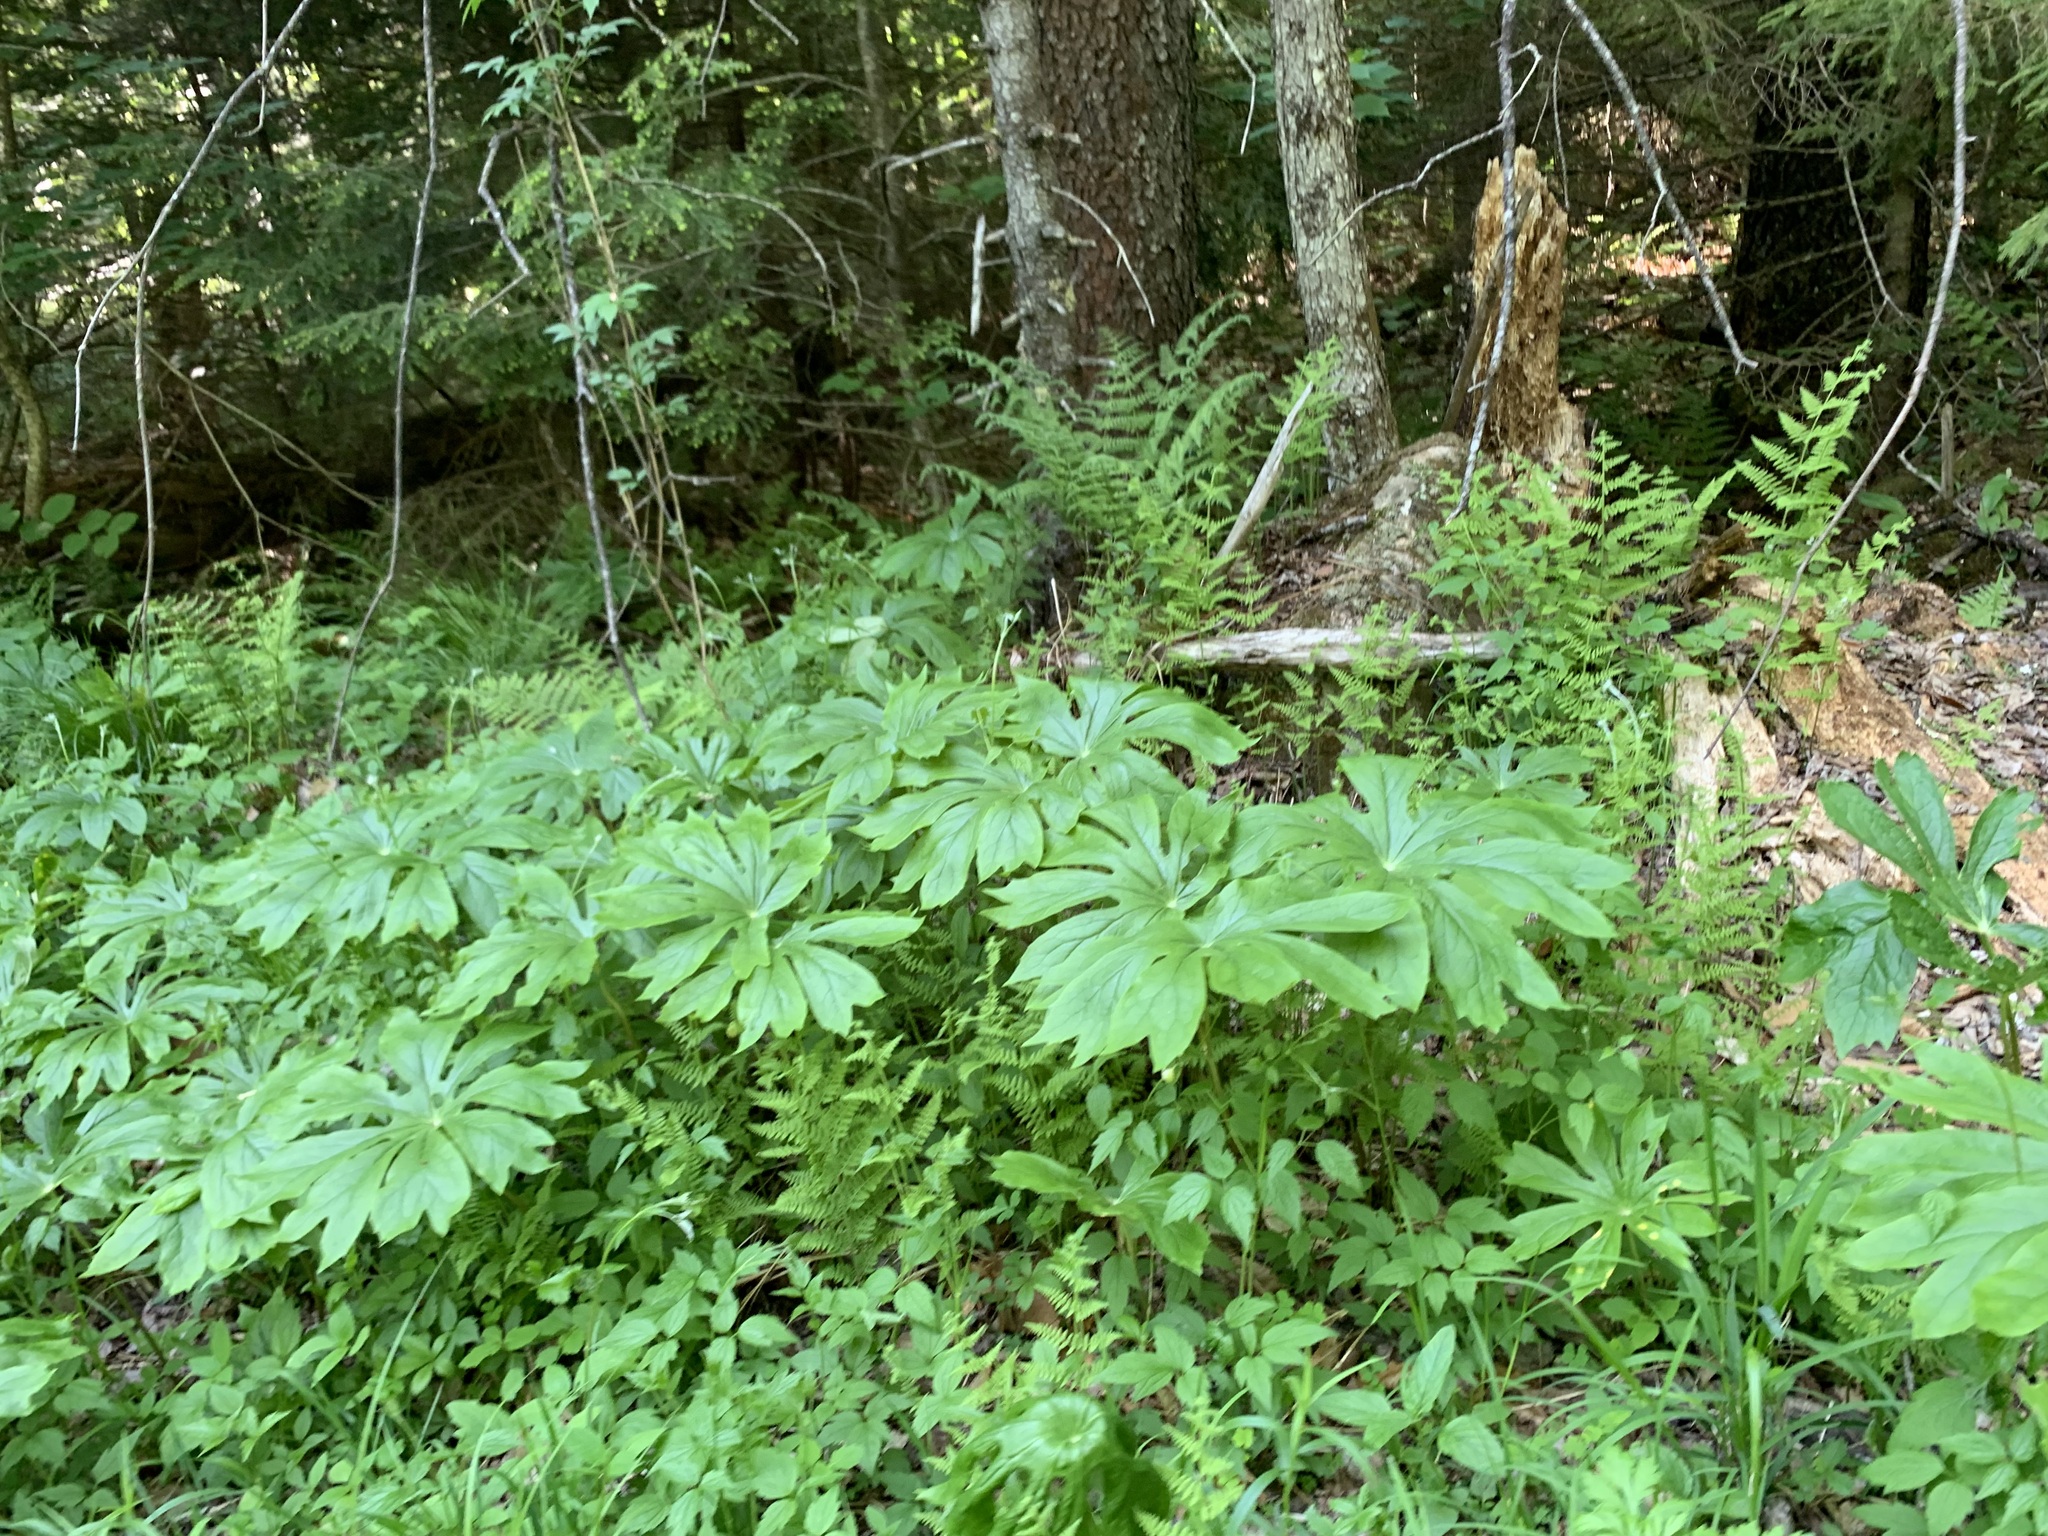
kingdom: Plantae
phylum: Tracheophyta
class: Magnoliopsida
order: Ranunculales
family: Berberidaceae
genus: Podophyllum
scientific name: Podophyllum peltatum
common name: Wild mandrake
